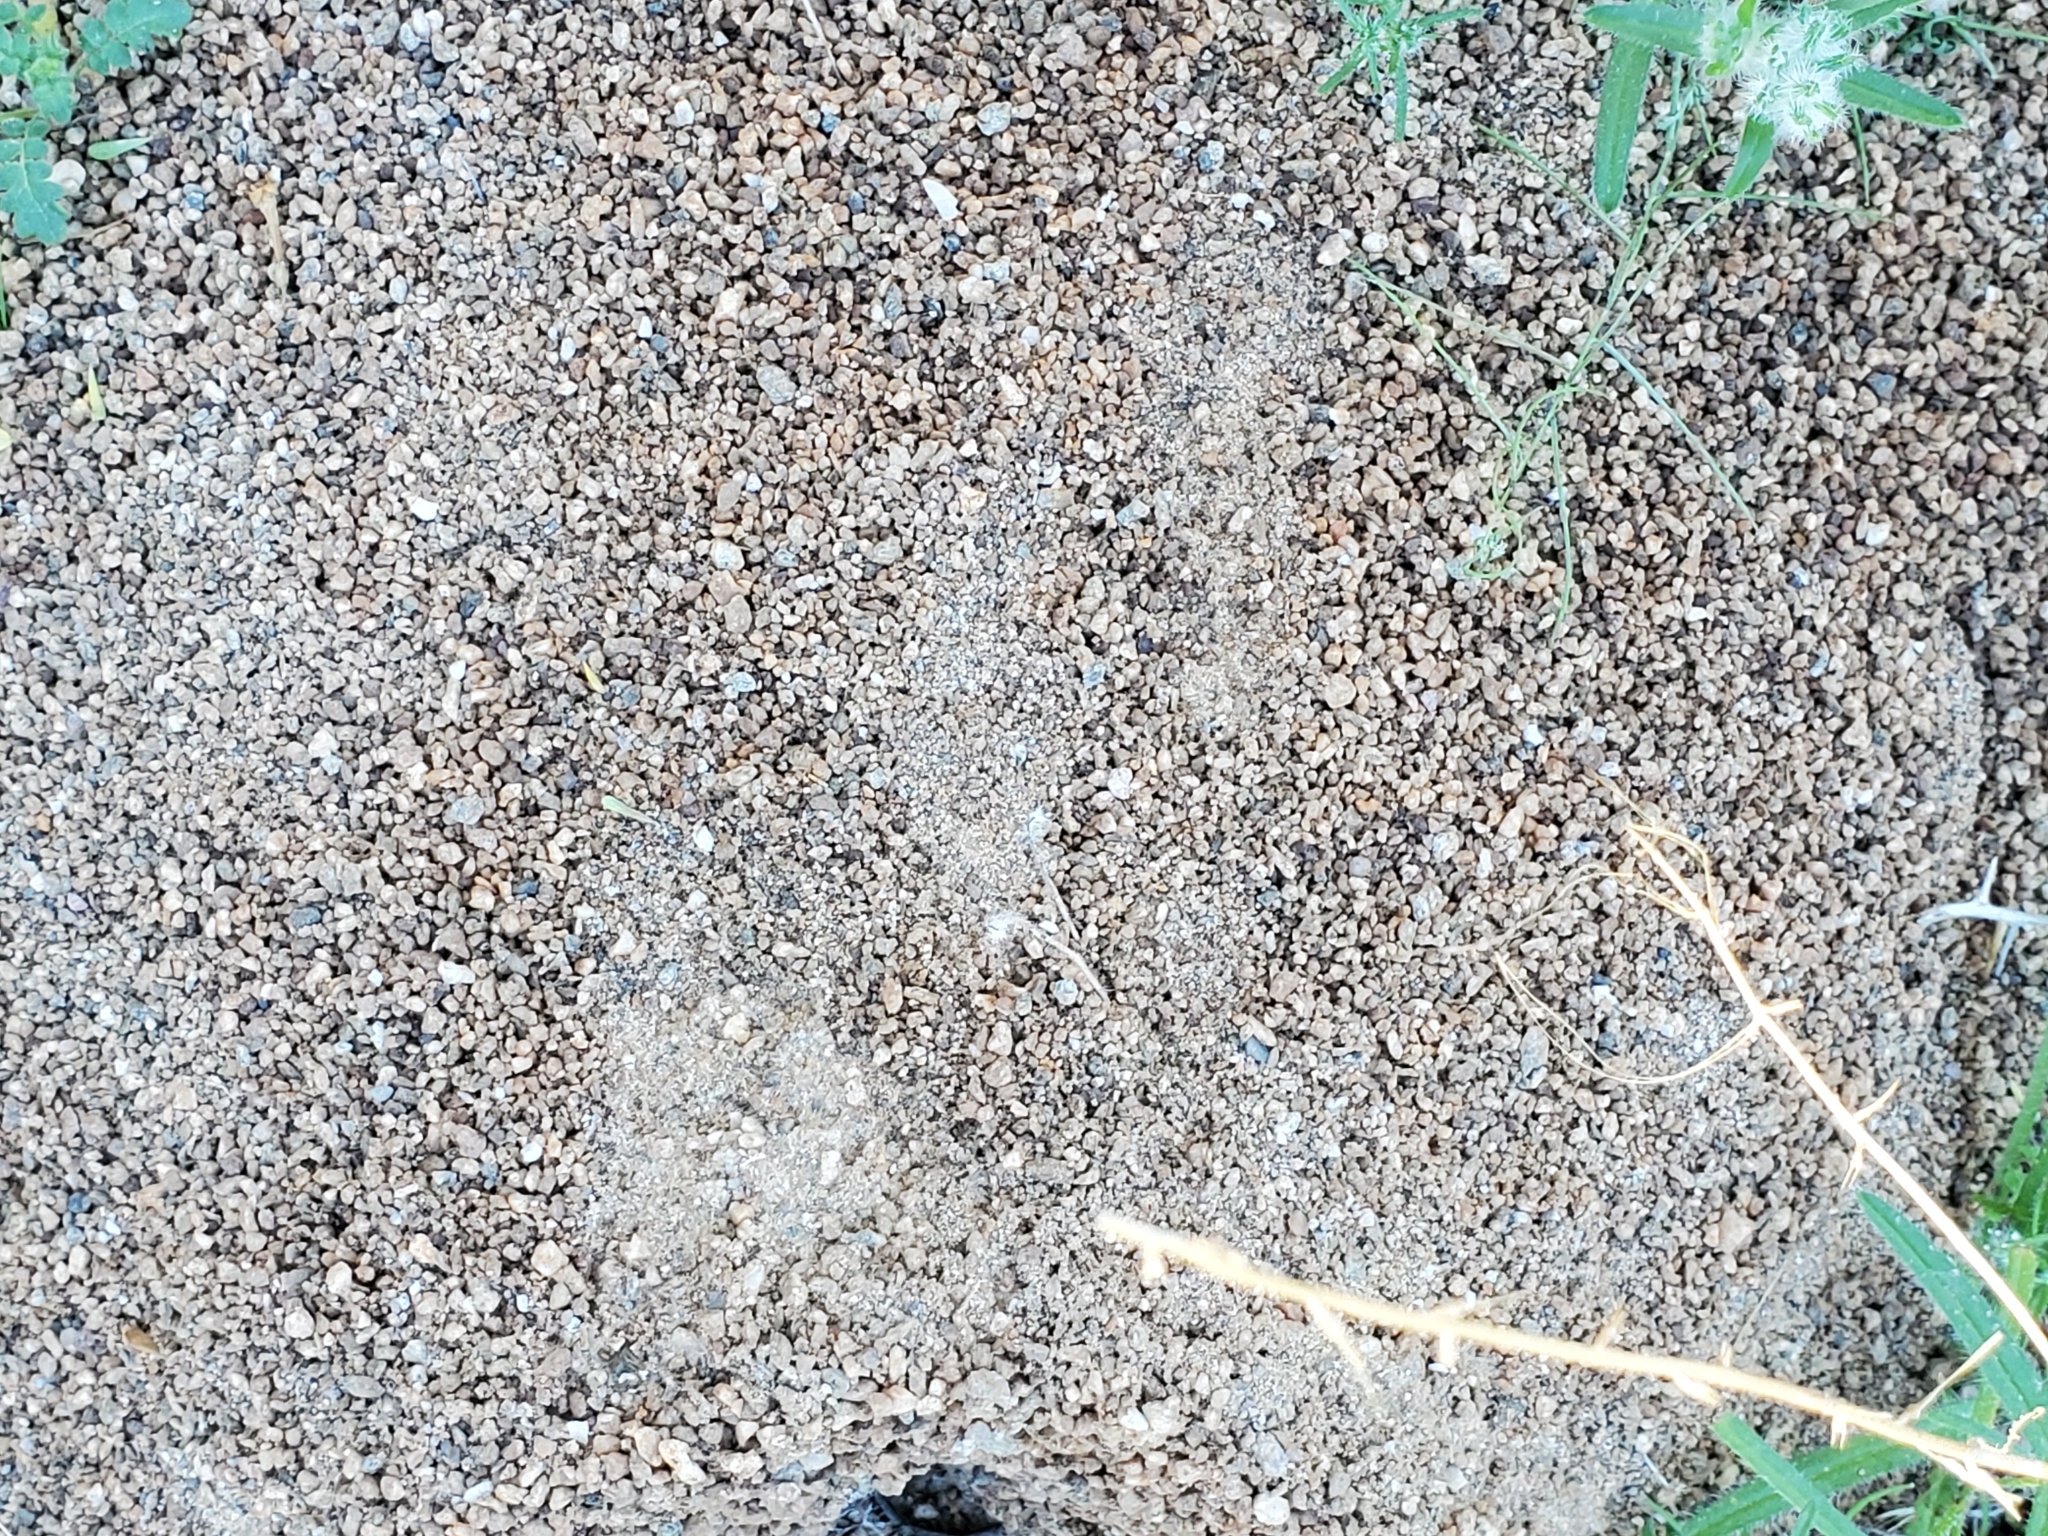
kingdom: Animalia
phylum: Arthropoda
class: Insecta
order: Hymenoptera
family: Formicidae
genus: Acromyrmex
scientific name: Acromyrmex versicolor
